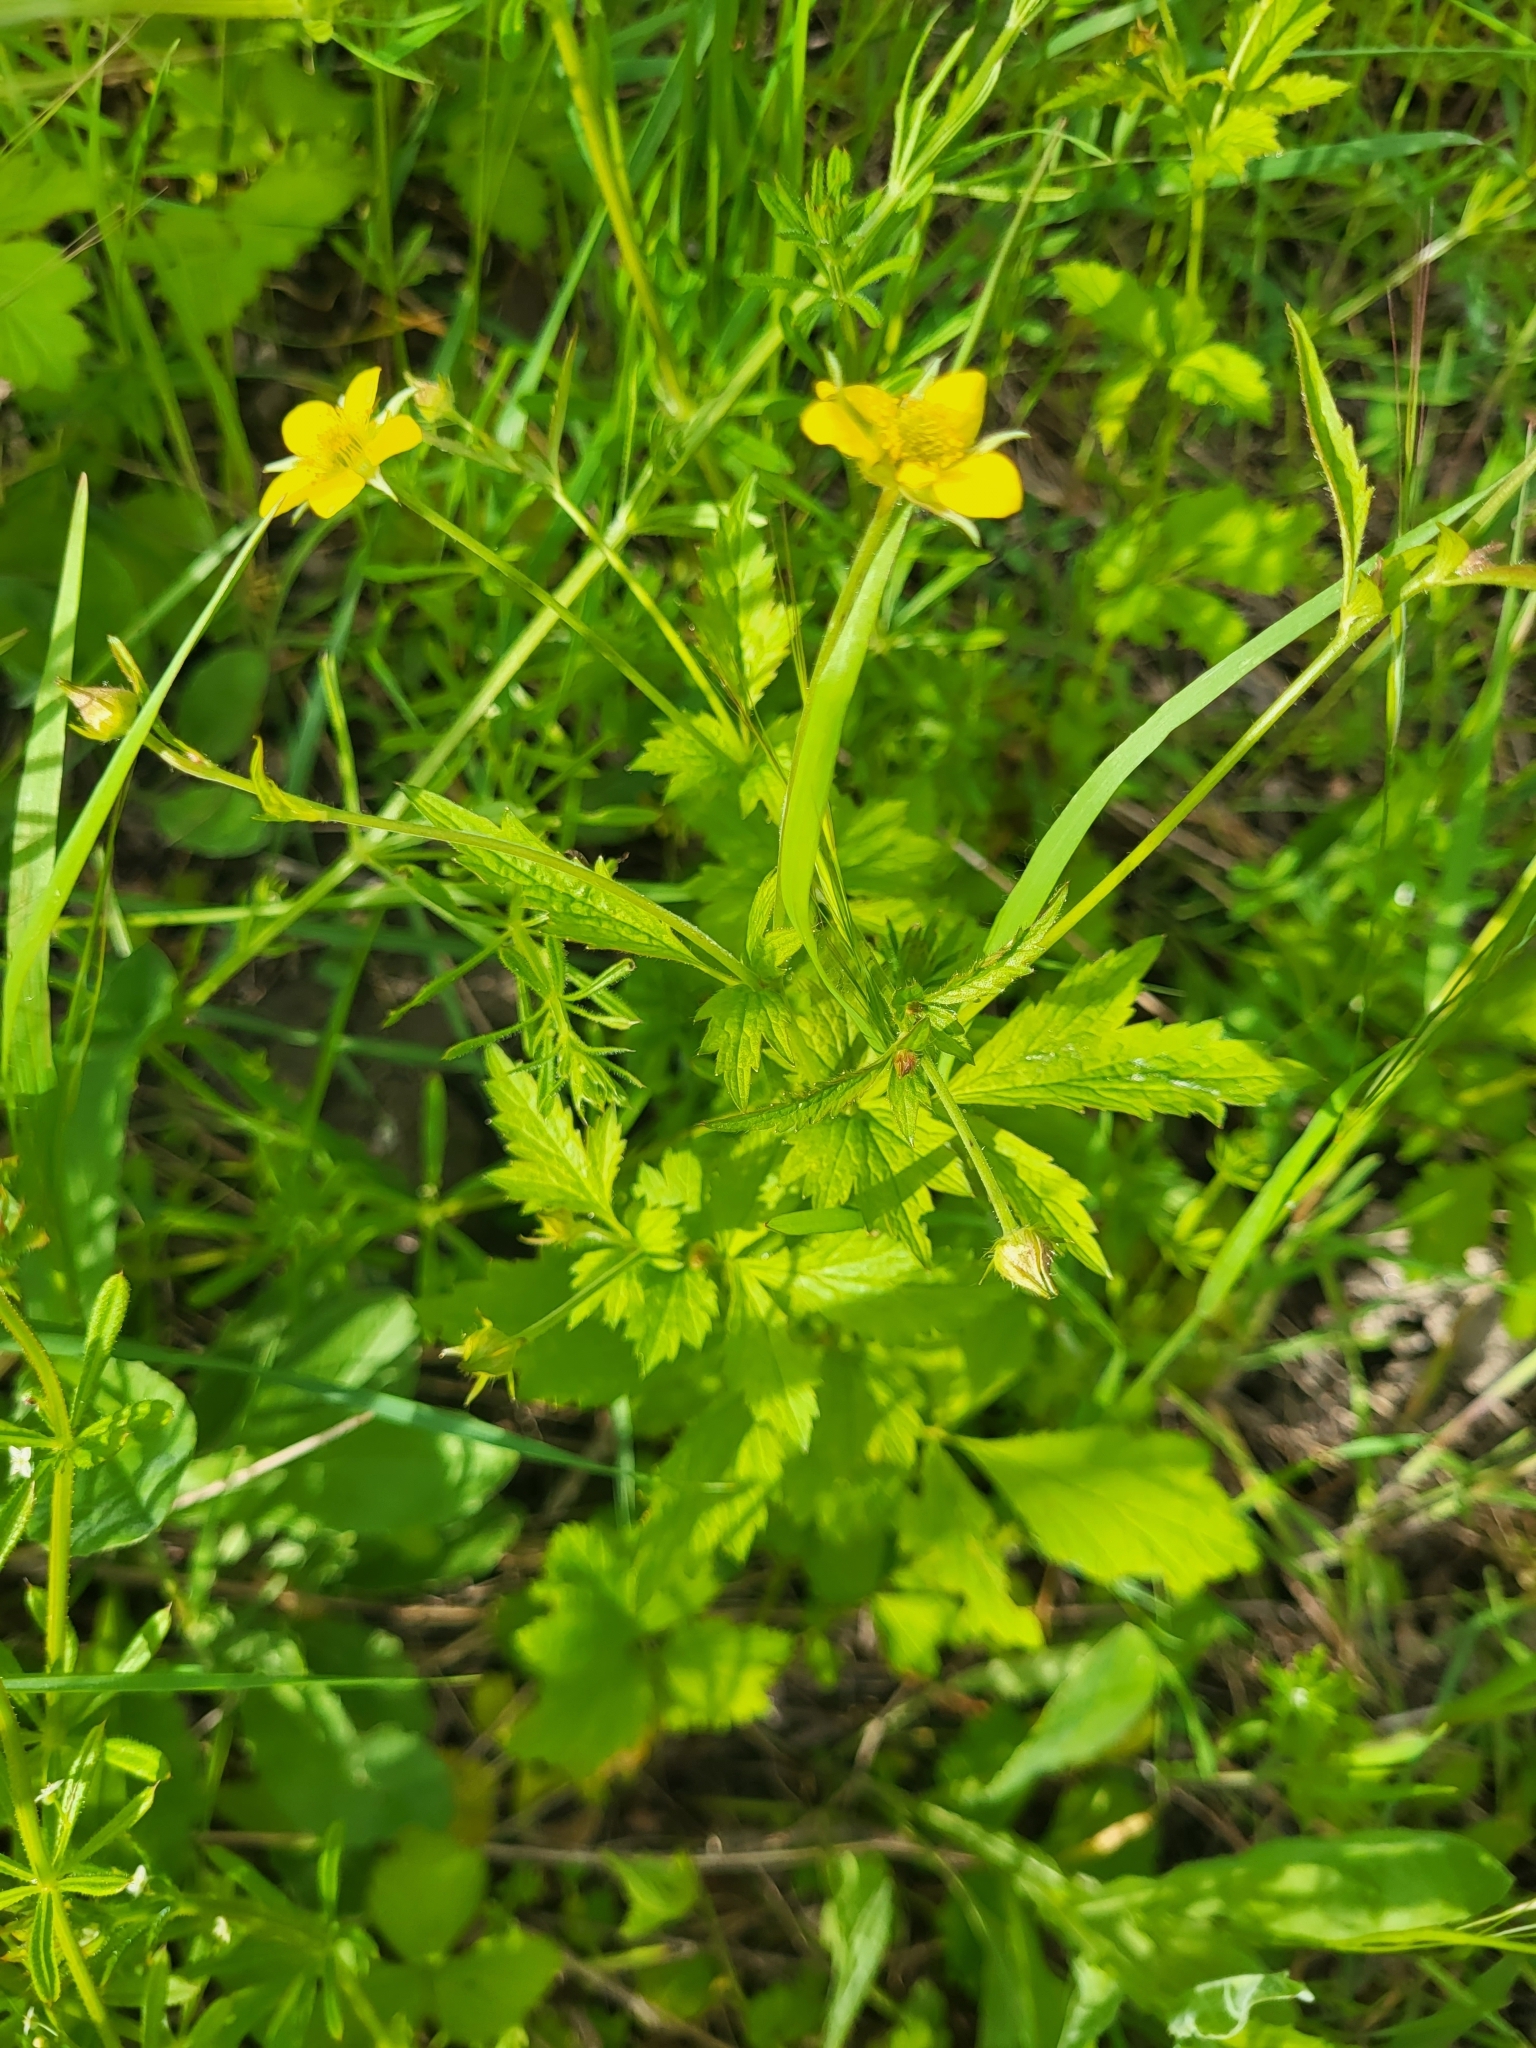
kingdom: Plantae
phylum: Tracheophyta
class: Magnoliopsida
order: Rosales
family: Rosaceae
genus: Geum
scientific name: Geum urbanum
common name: Wood avens
